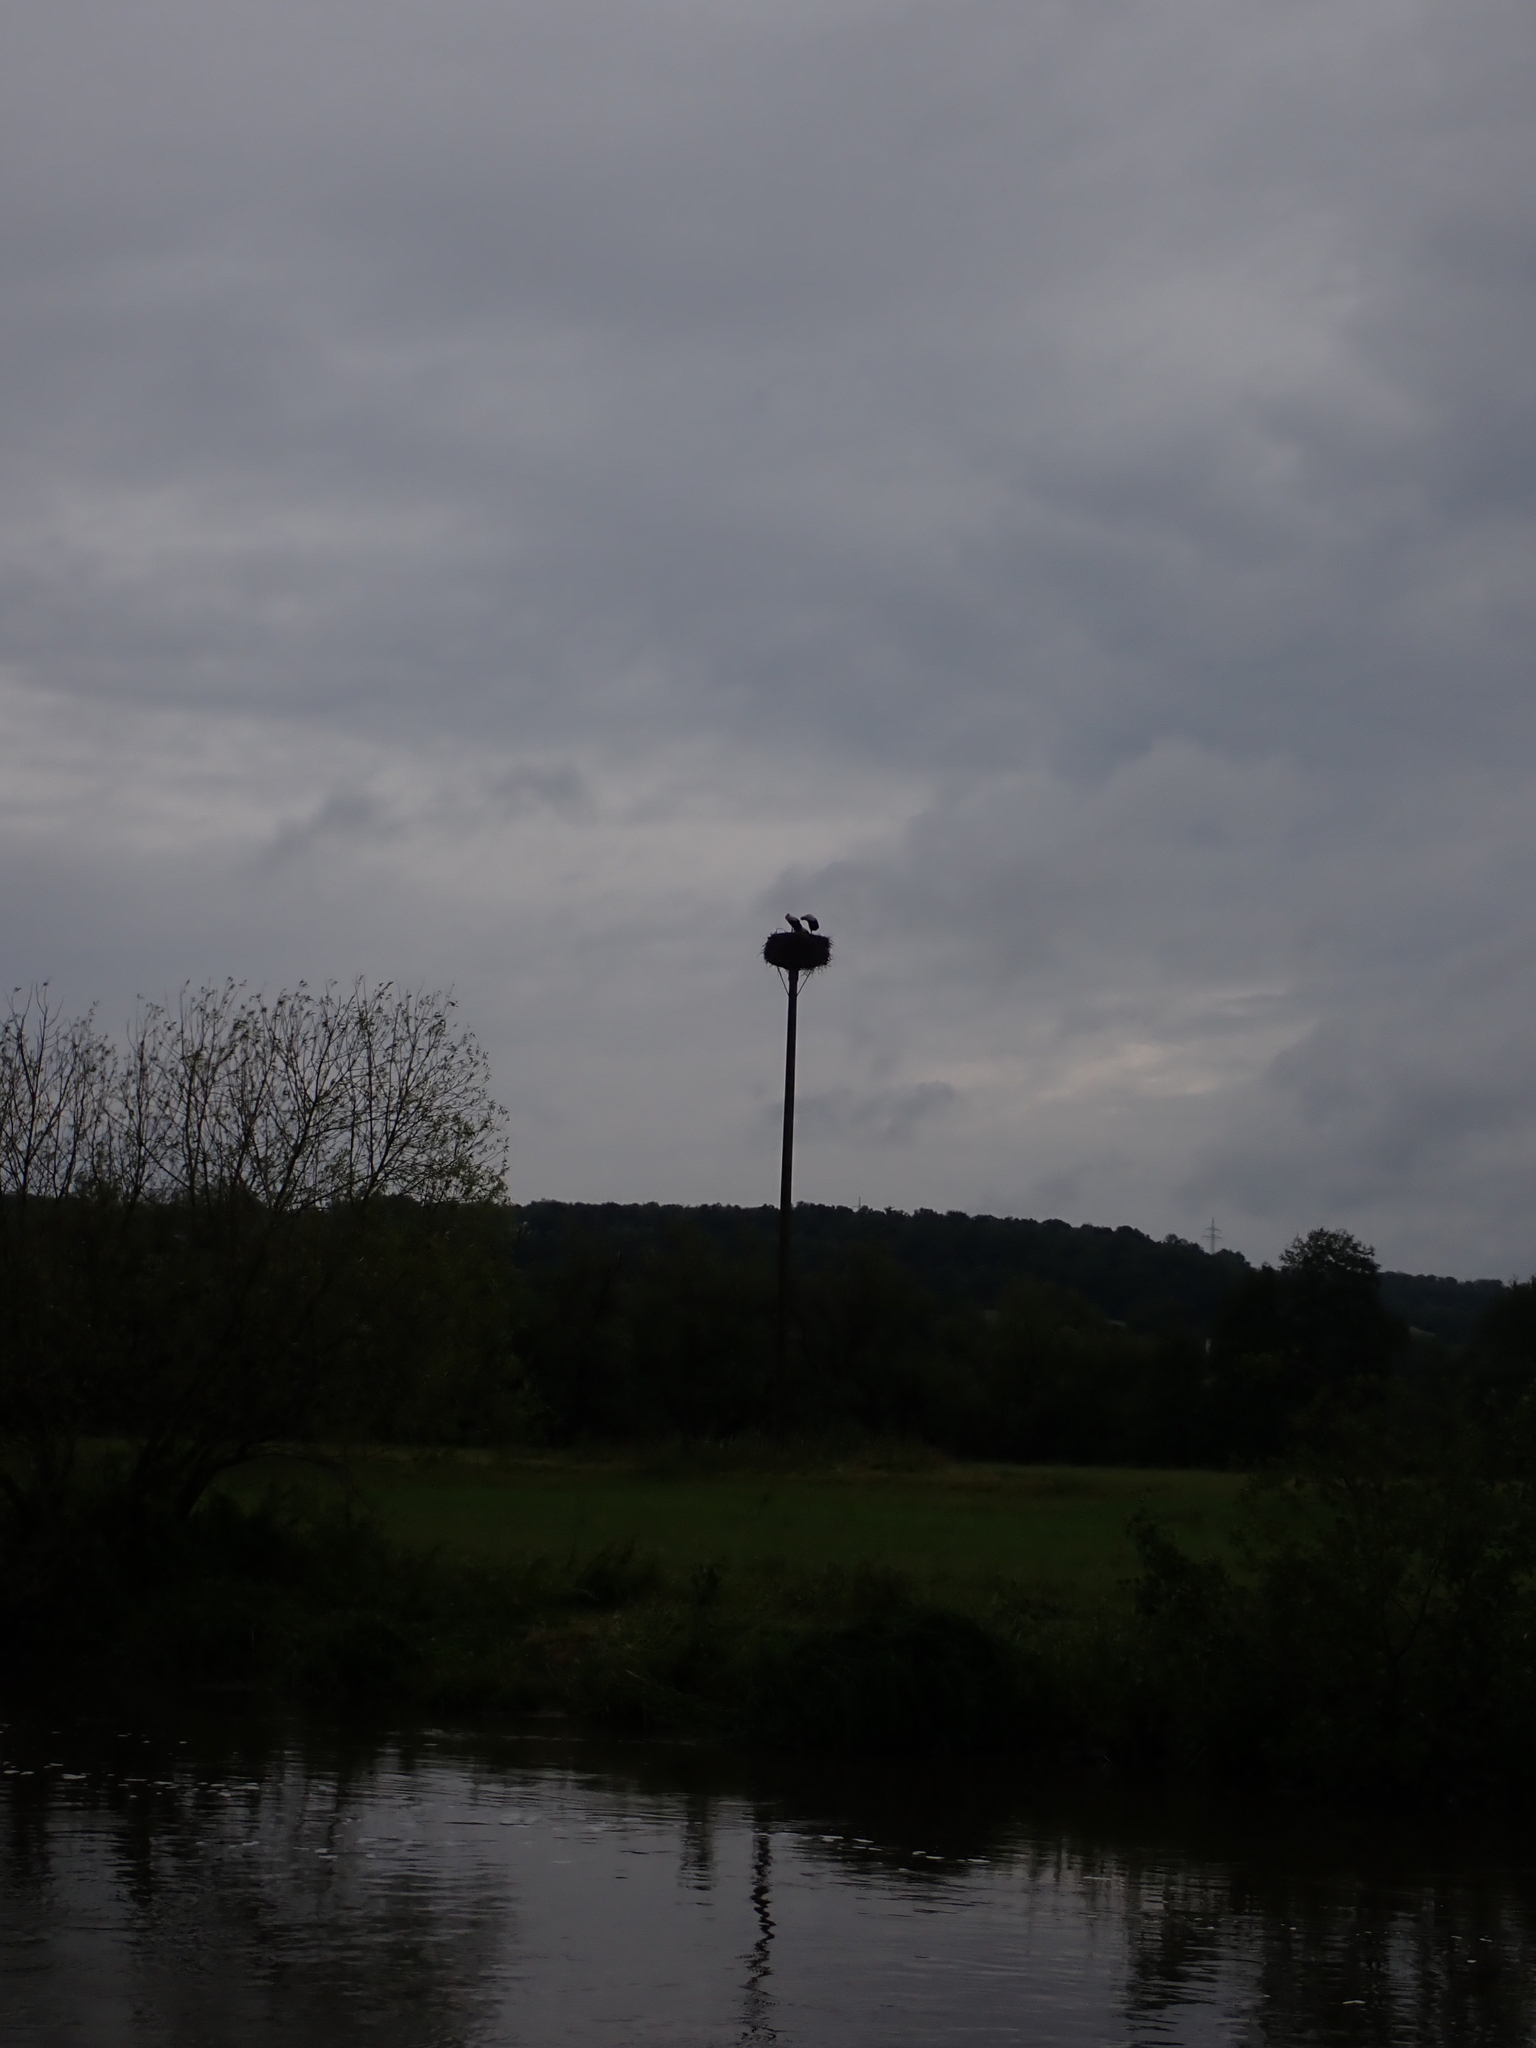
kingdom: Animalia
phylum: Chordata
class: Aves
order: Ciconiiformes
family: Ciconiidae
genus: Ciconia
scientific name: Ciconia ciconia
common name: White stork
